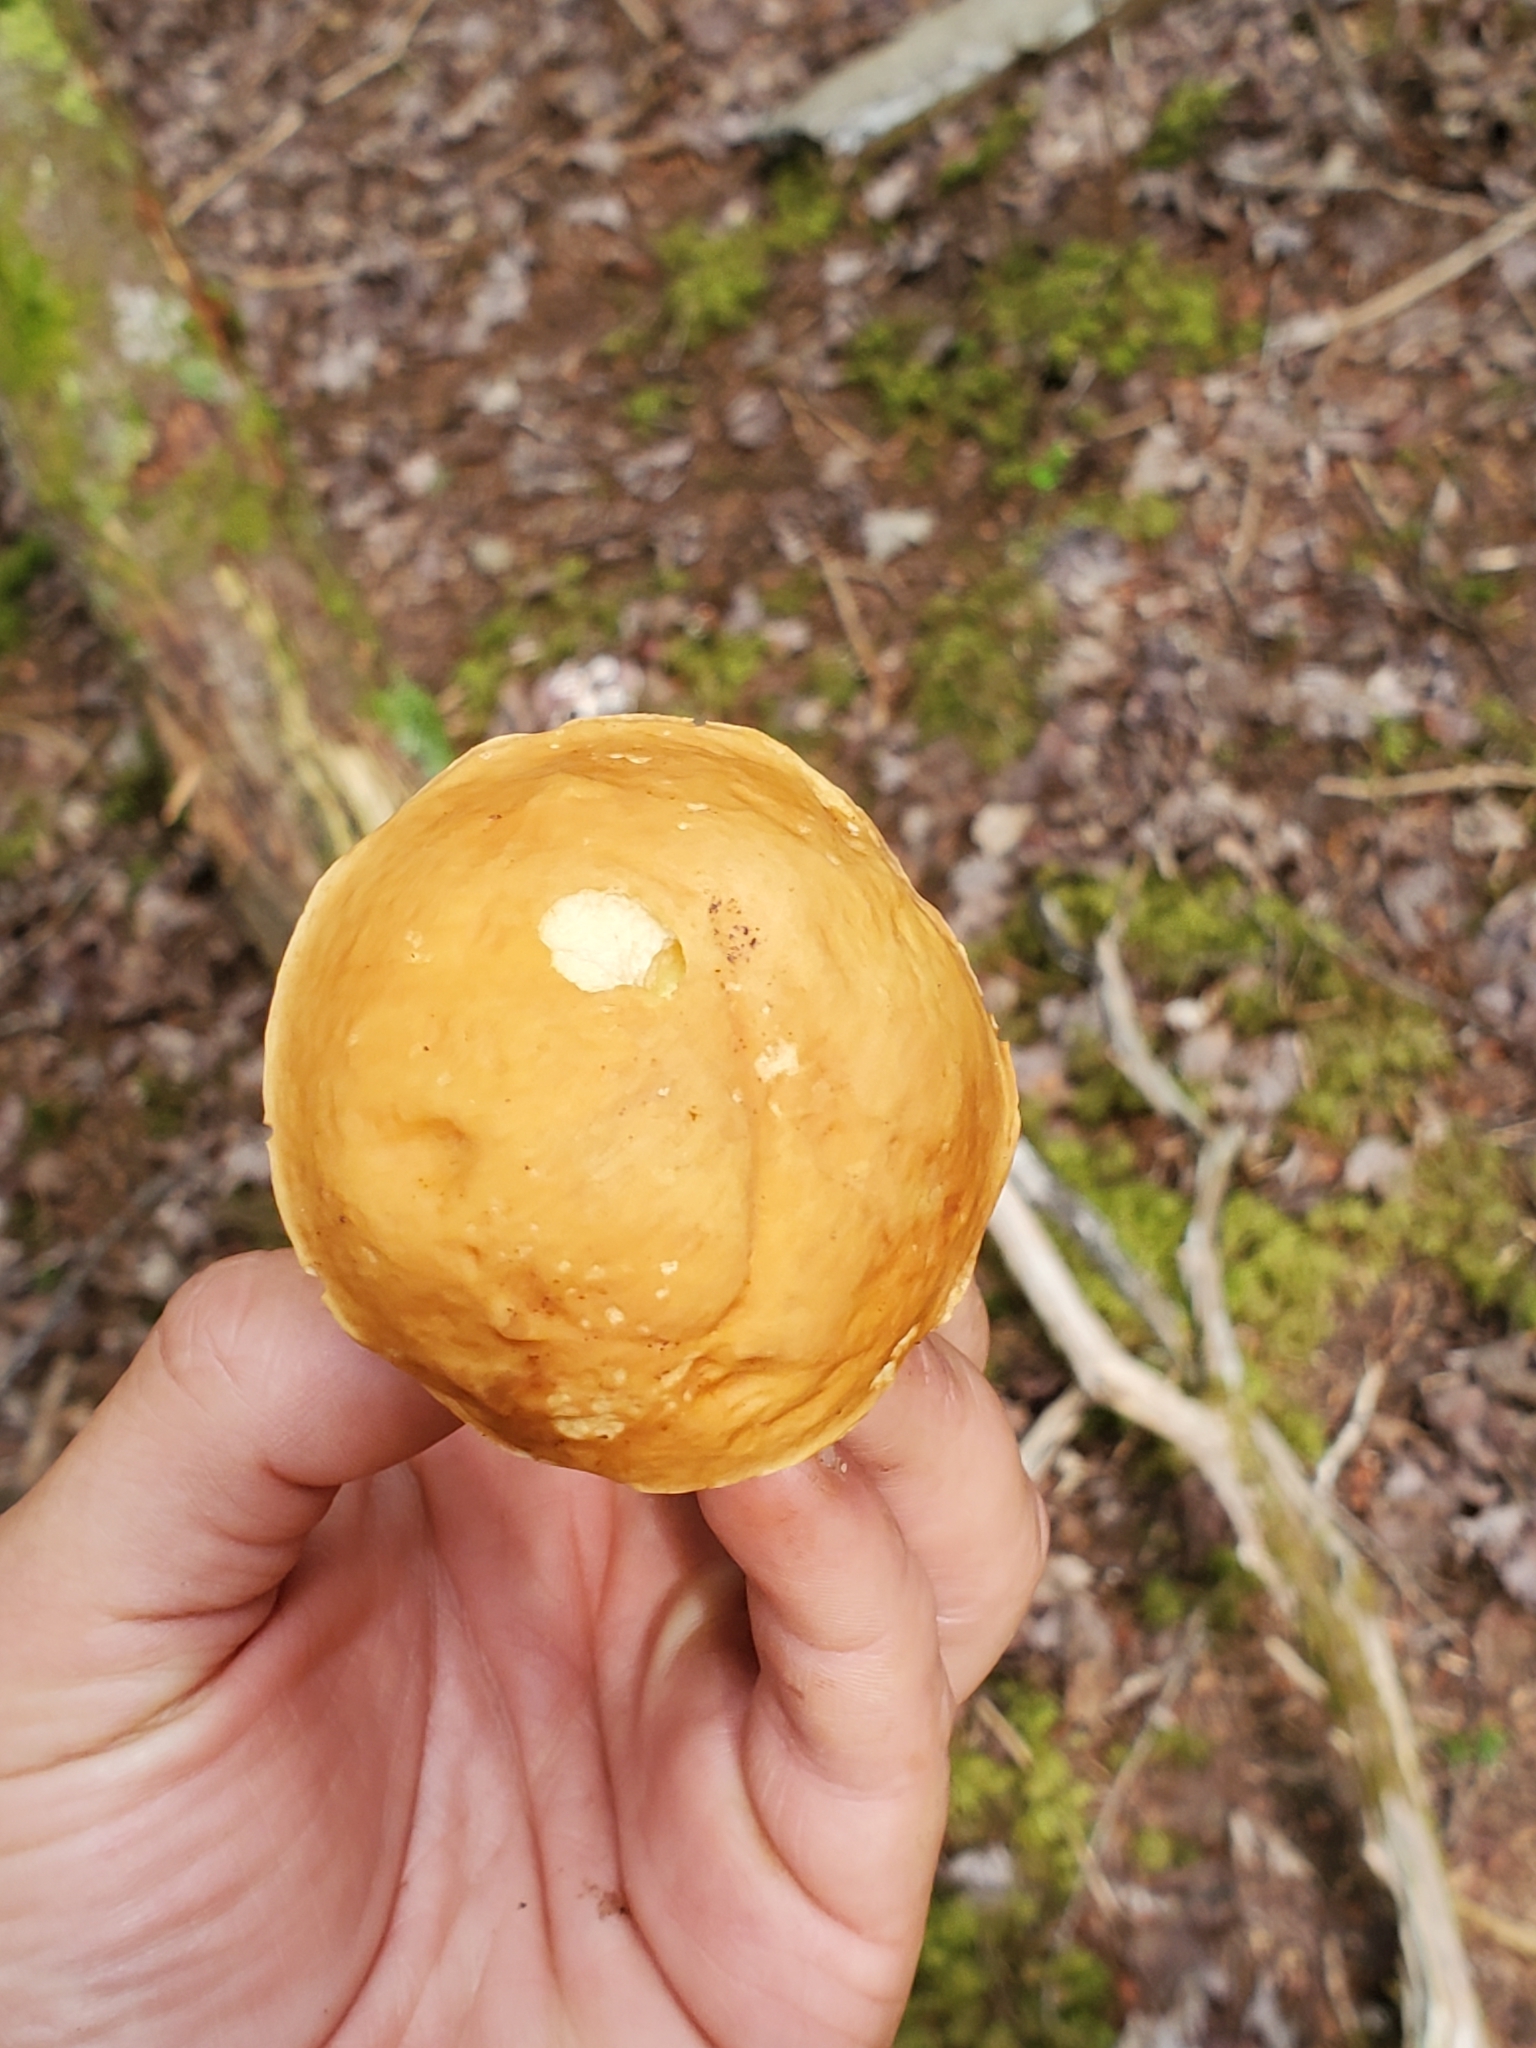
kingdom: Fungi
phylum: Basidiomycota
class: Agaricomycetes
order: Boletales
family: Boletaceae
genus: Hemileccinum
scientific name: Hemileccinum subglabripes
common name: Smoothish-stemmed bolete
